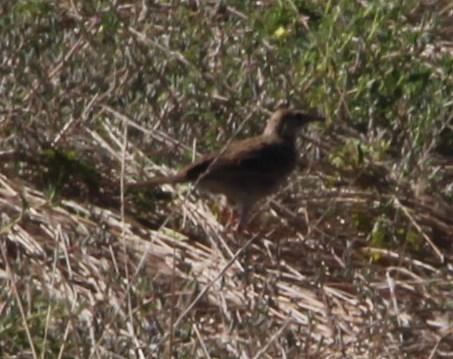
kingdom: Animalia
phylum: Chordata
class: Aves
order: Passeriformes
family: Motacillidae
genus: Anthus
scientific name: Anthus cinnamomeus
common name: African pipit
